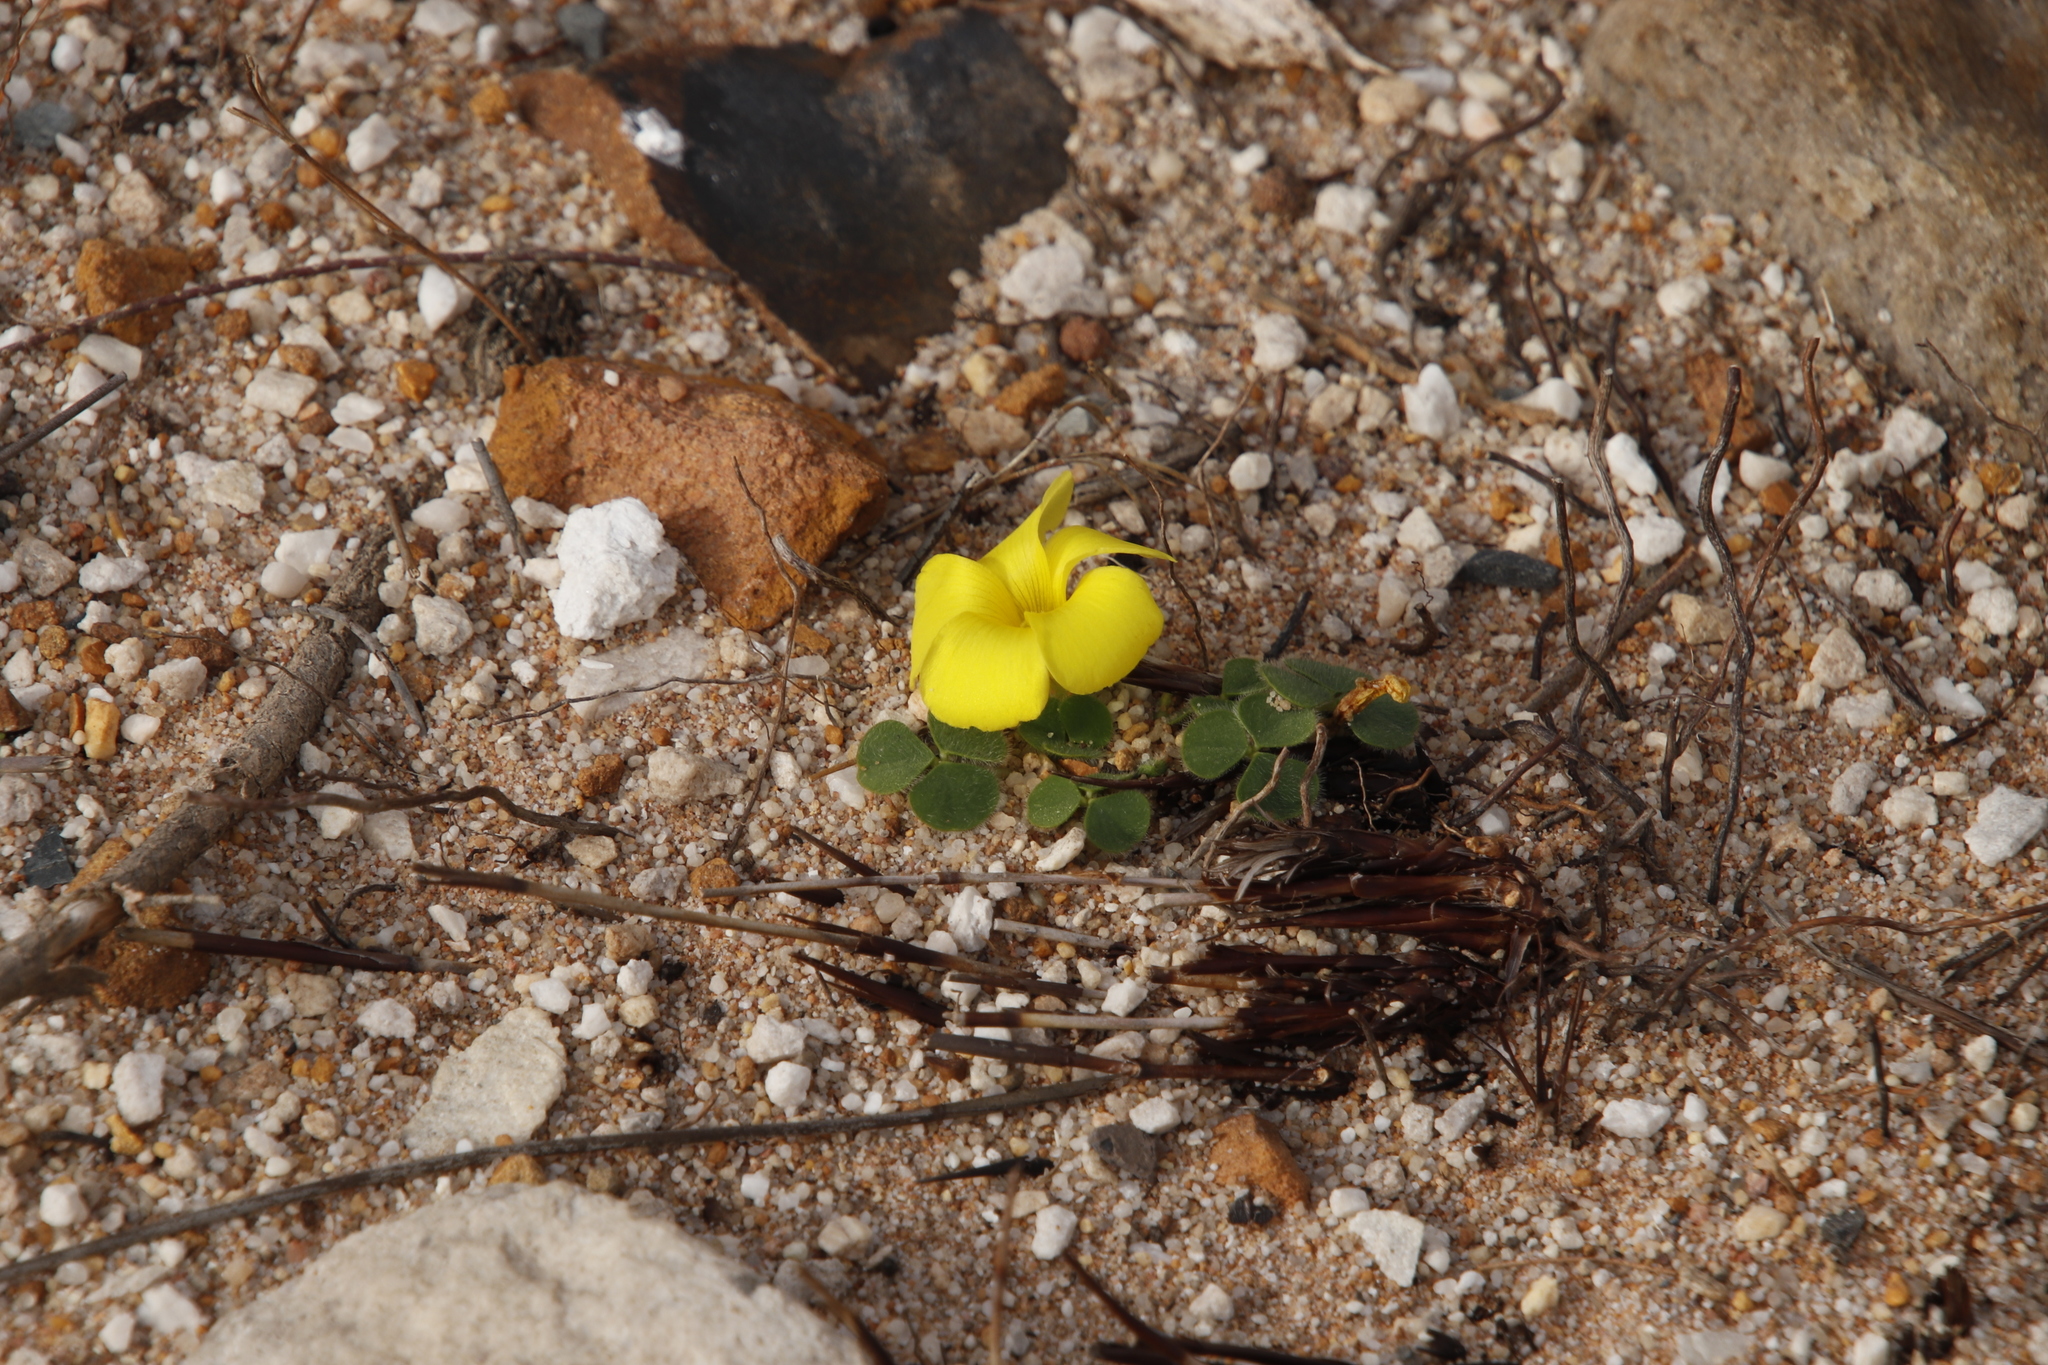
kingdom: Plantae
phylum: Tracheophyta
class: Magnoliopsida
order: Oxalidales
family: Oxalidaceae
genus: Oxalis
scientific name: Oxalis luteola
